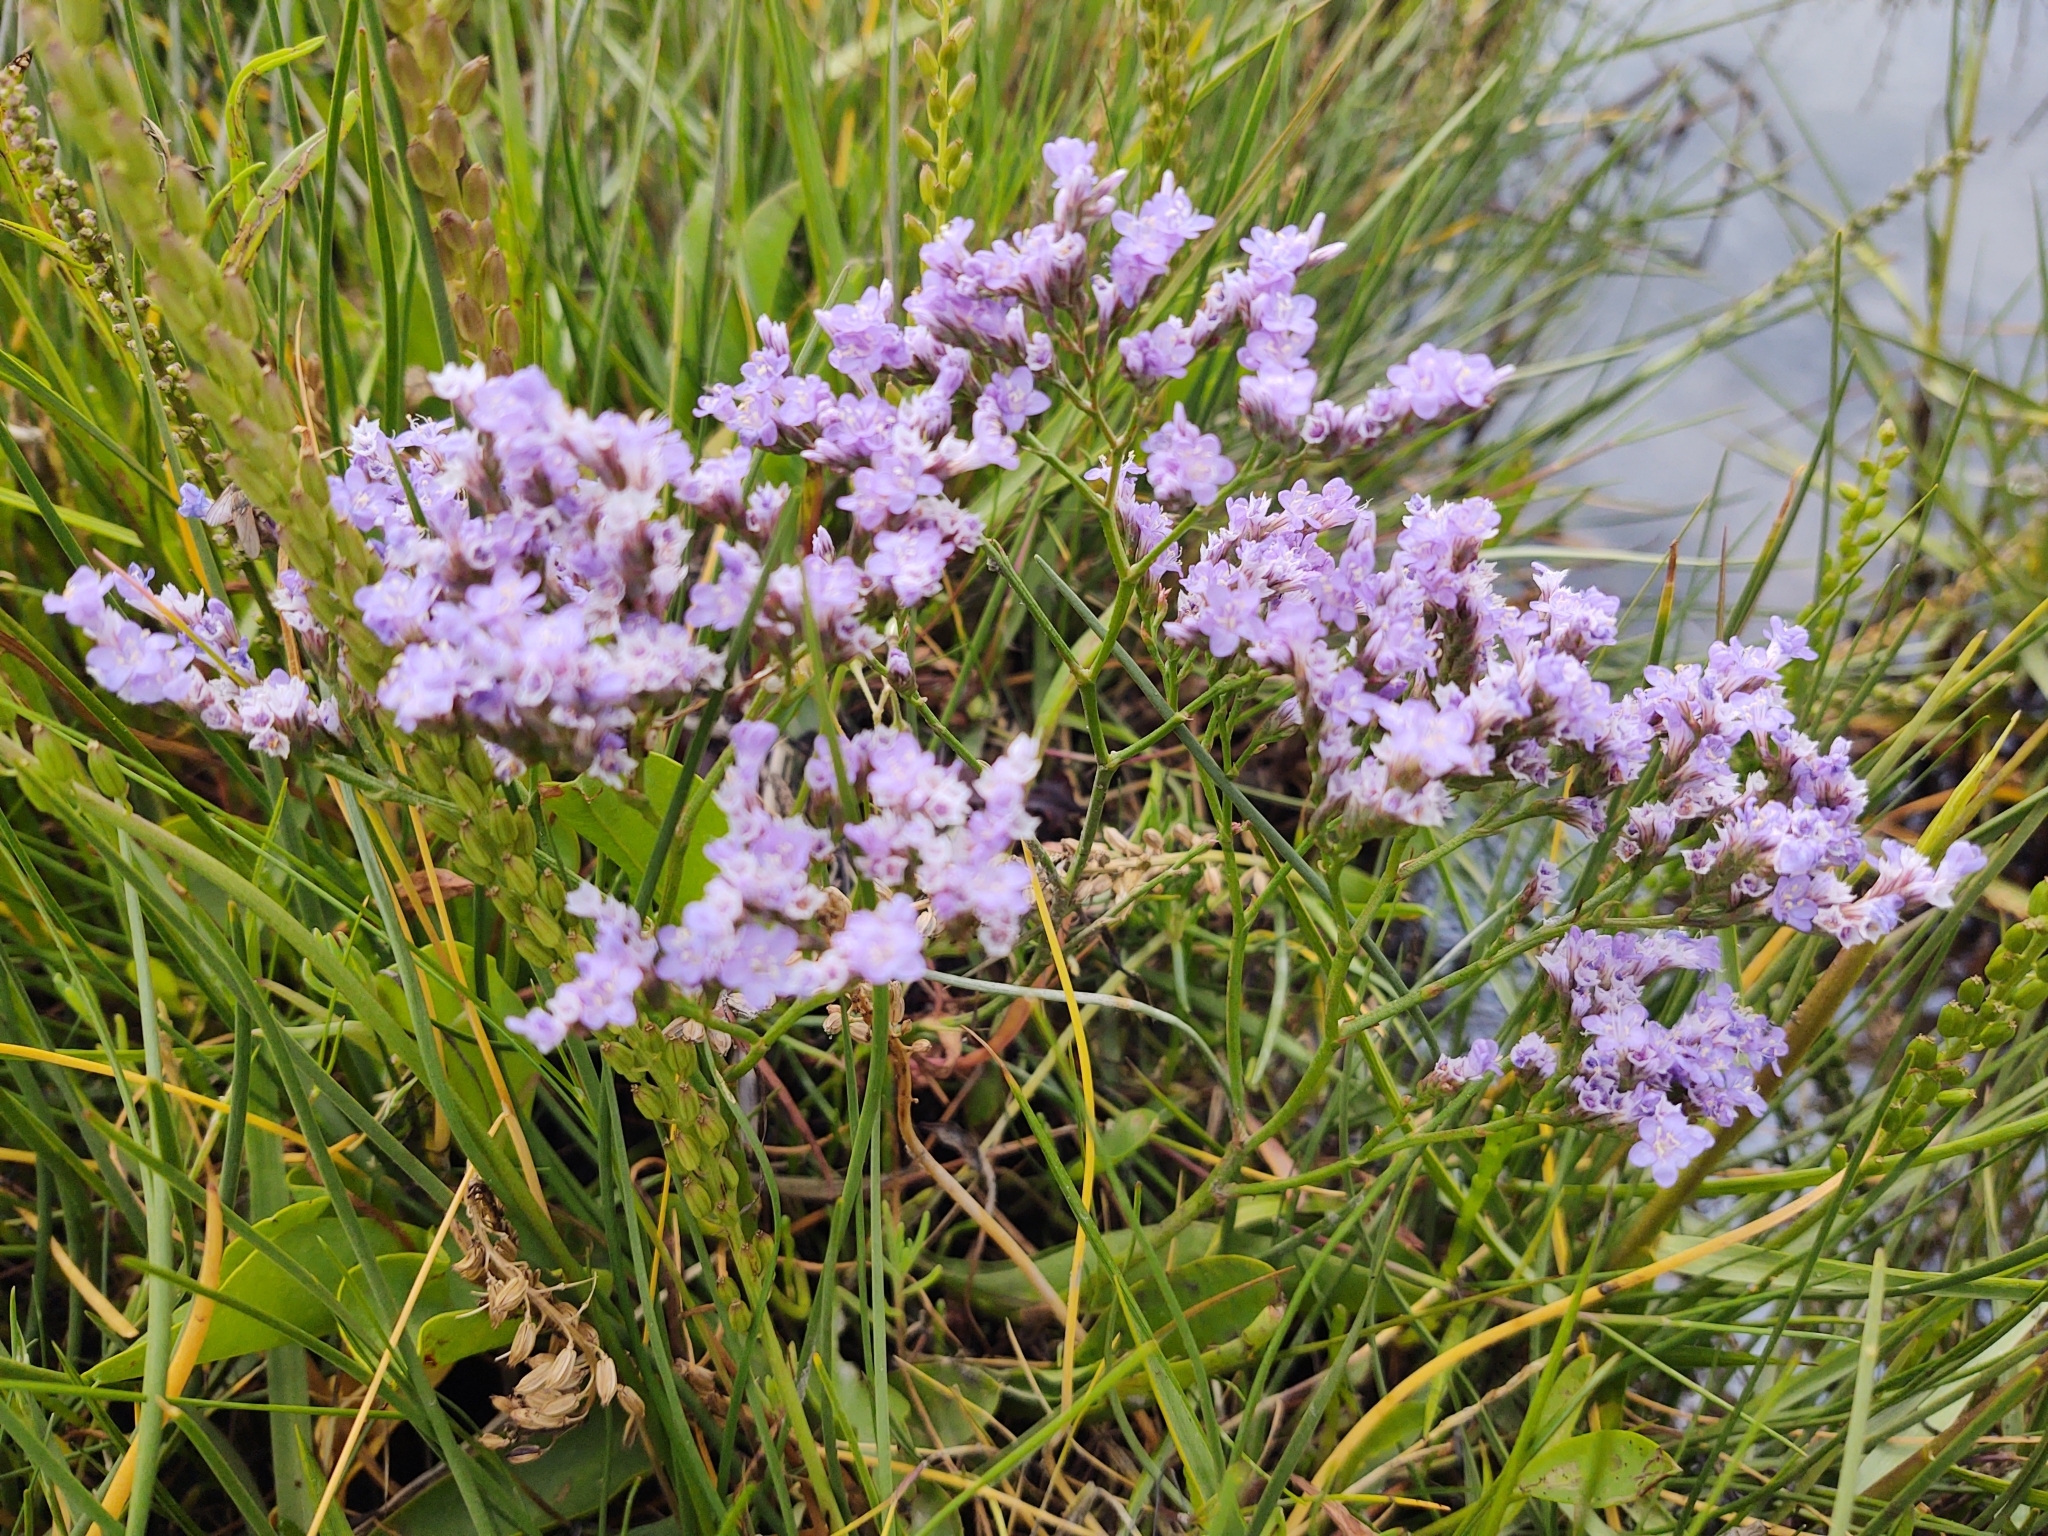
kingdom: Plantae
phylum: Tracheophyta
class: Magnoliopsida
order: Caryophyllales
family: Plumbaginaceae
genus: Limonium
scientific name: Limonium vulgare
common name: Common sea-lavender
